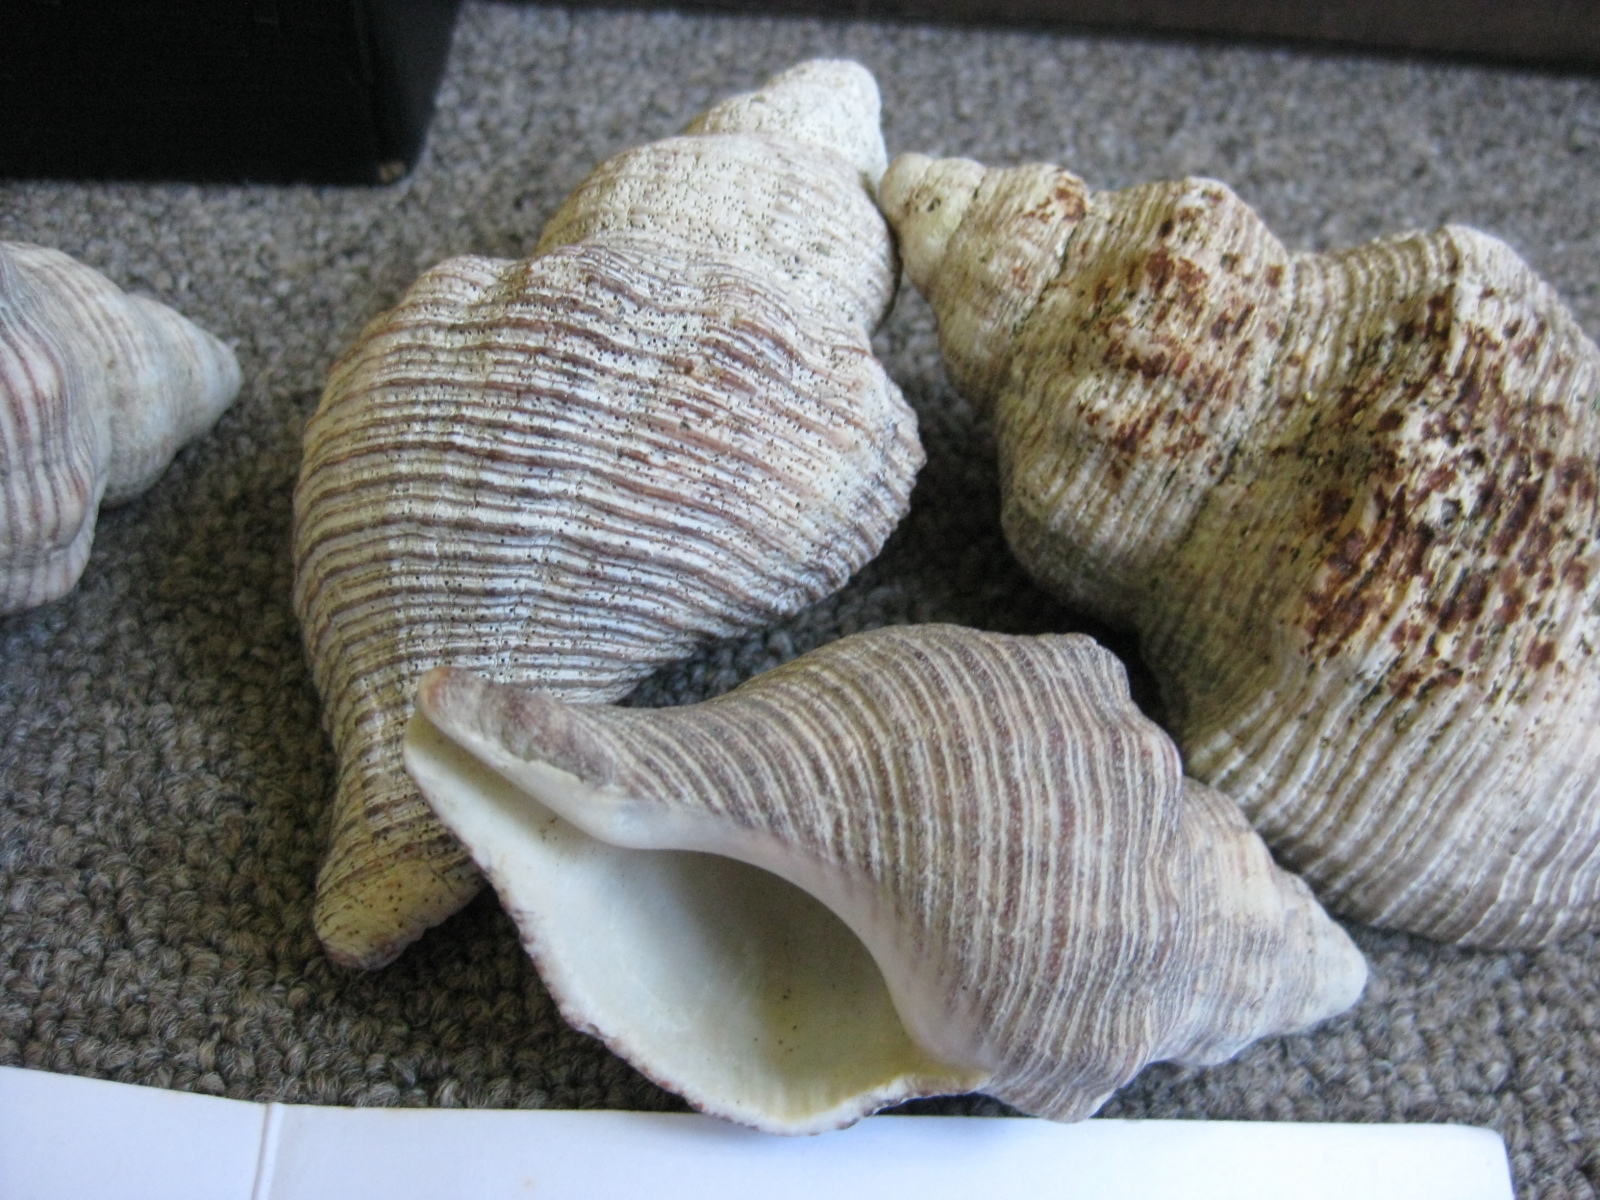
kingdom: Animalia
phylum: Mollusca
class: Gastropoda
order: Neogastropoda
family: Austrosiphonidae
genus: Penion
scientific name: Penion sulcatus
